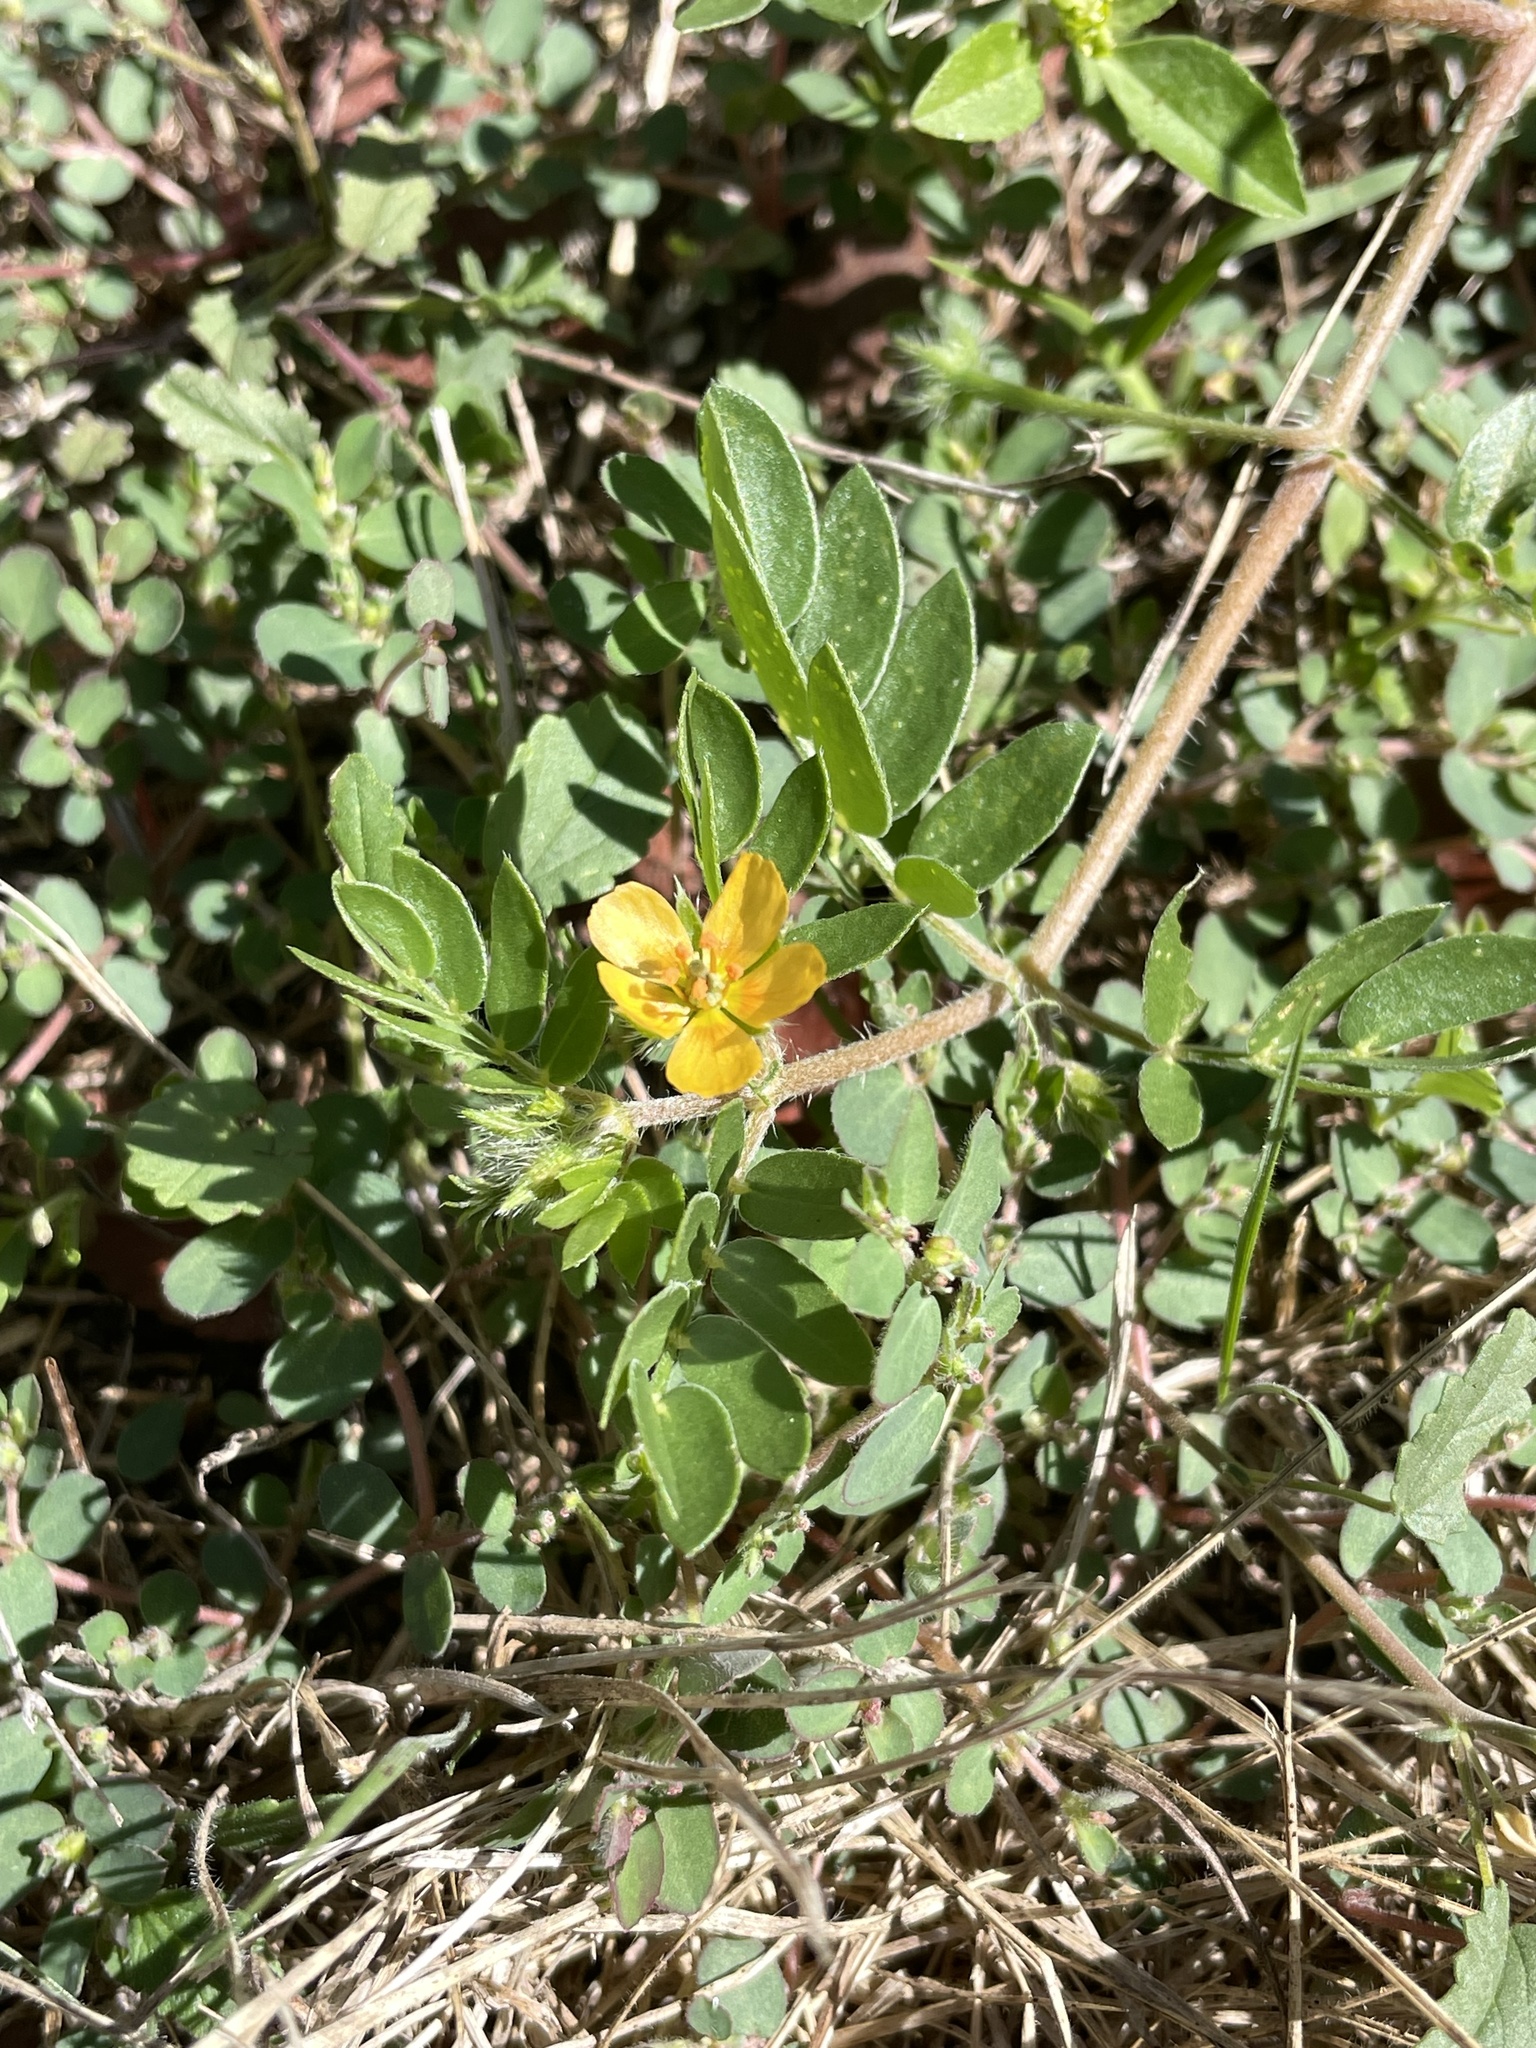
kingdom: Plantae
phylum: Tracheophyta
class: Magnoliopsida
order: Zygophyllales
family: Zygophyllaceae
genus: Kallstroemia
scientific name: Kallstroemia parviflora
